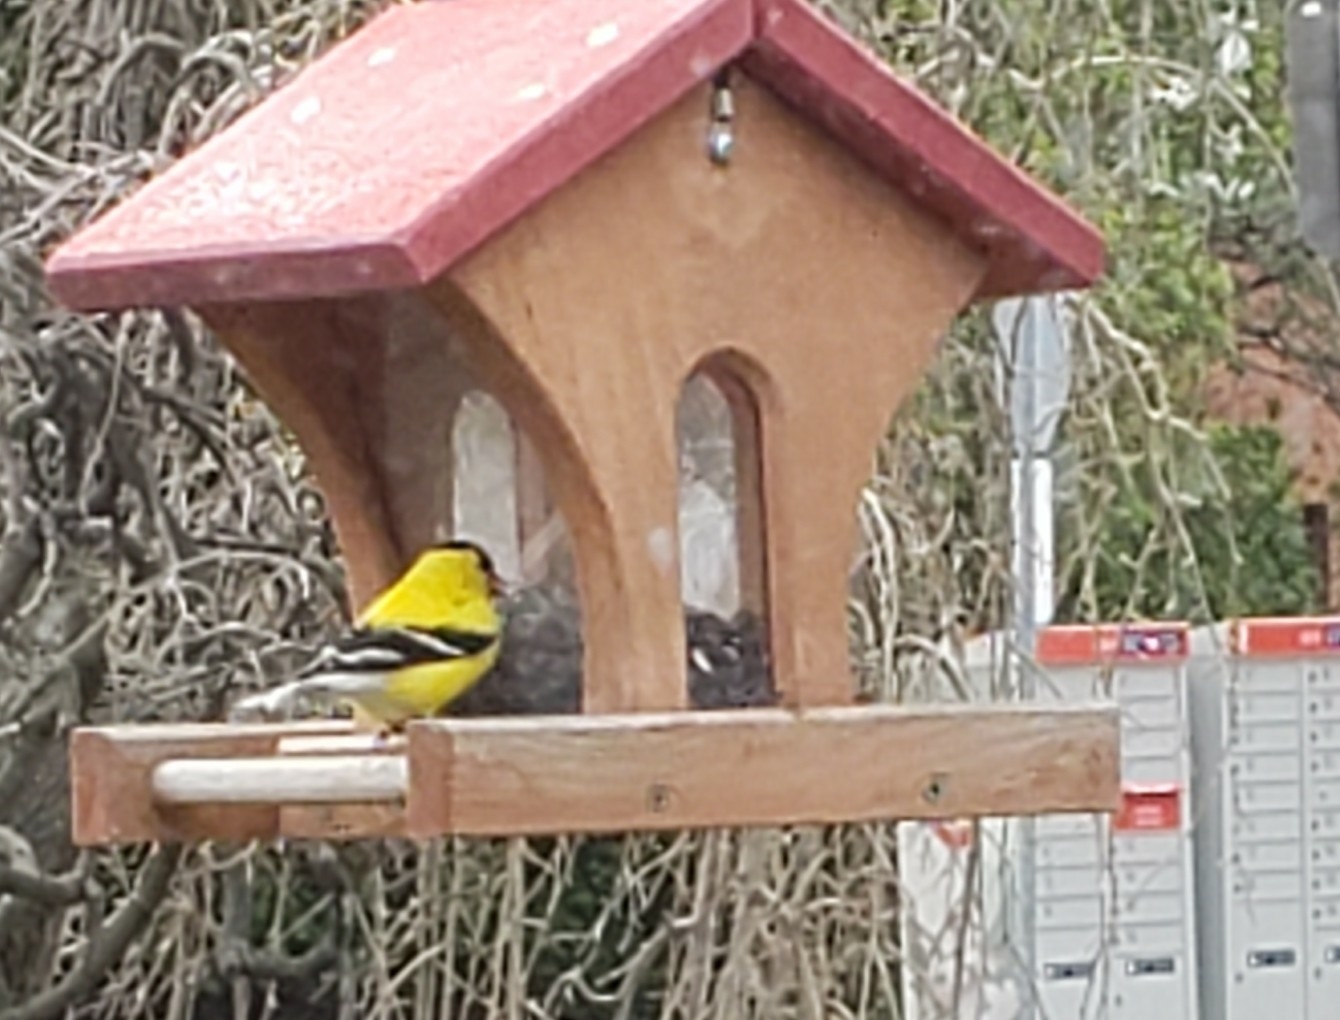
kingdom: Animalia
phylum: Chordata
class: Aves
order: Passeriformes
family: Fringillidae
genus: Spinus
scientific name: Spinus tristis
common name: American goldfinch
